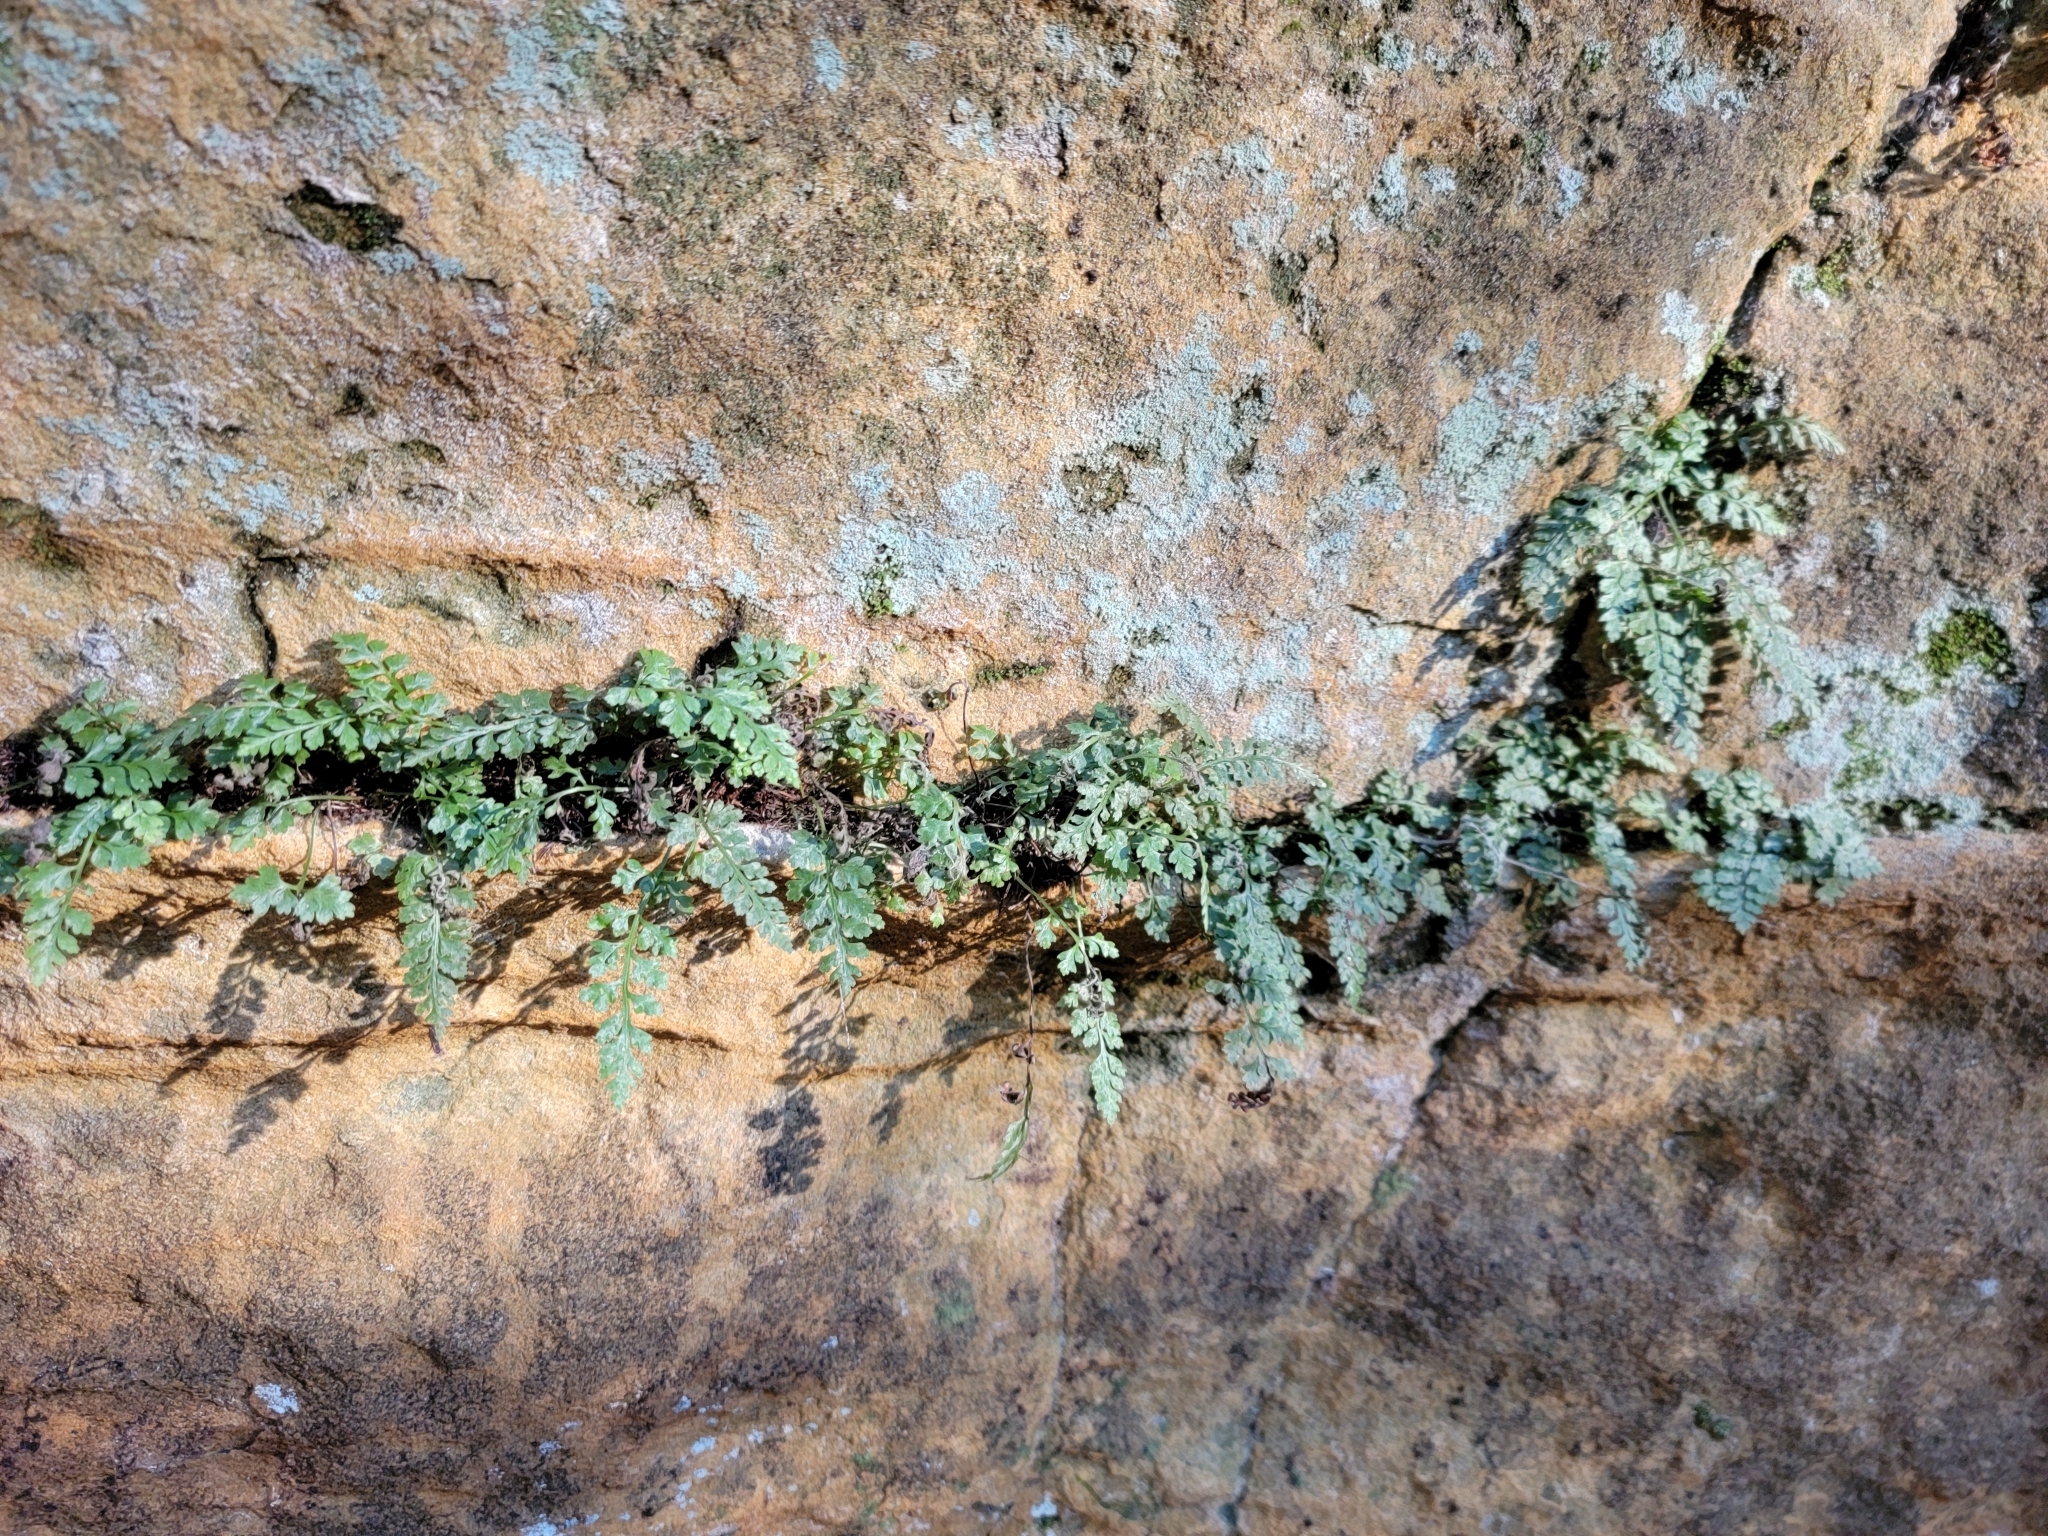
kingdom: Plantae
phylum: Tracheophyta
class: Polypodiopsida
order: Polypodiales
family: Aspleniaceae
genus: Asplenium
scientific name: Asplenium montanum
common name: Mountain spleenwort
